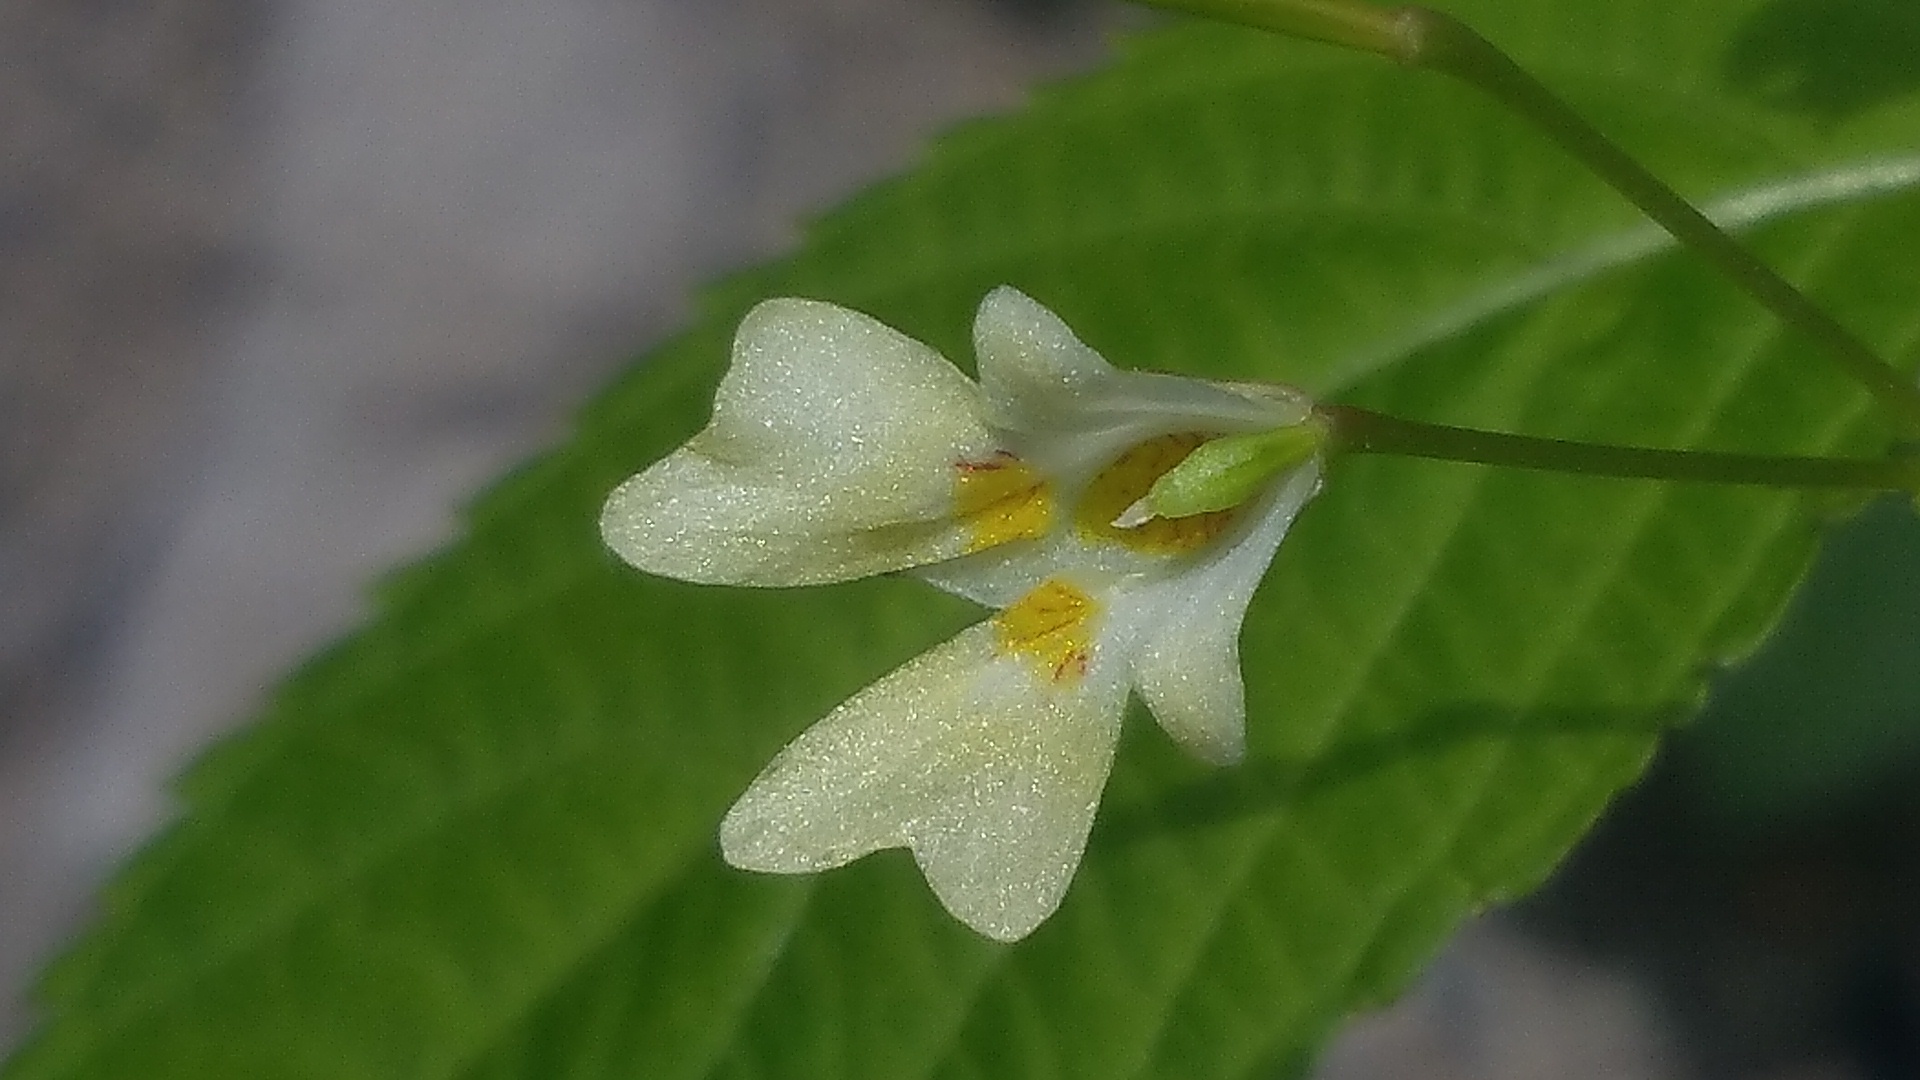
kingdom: Plantae
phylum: Tracheophyta
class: Magnoliopsida
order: Ericales
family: Balsaminaceae
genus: Impatiens
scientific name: Impatiens parviflora
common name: Small balsam
